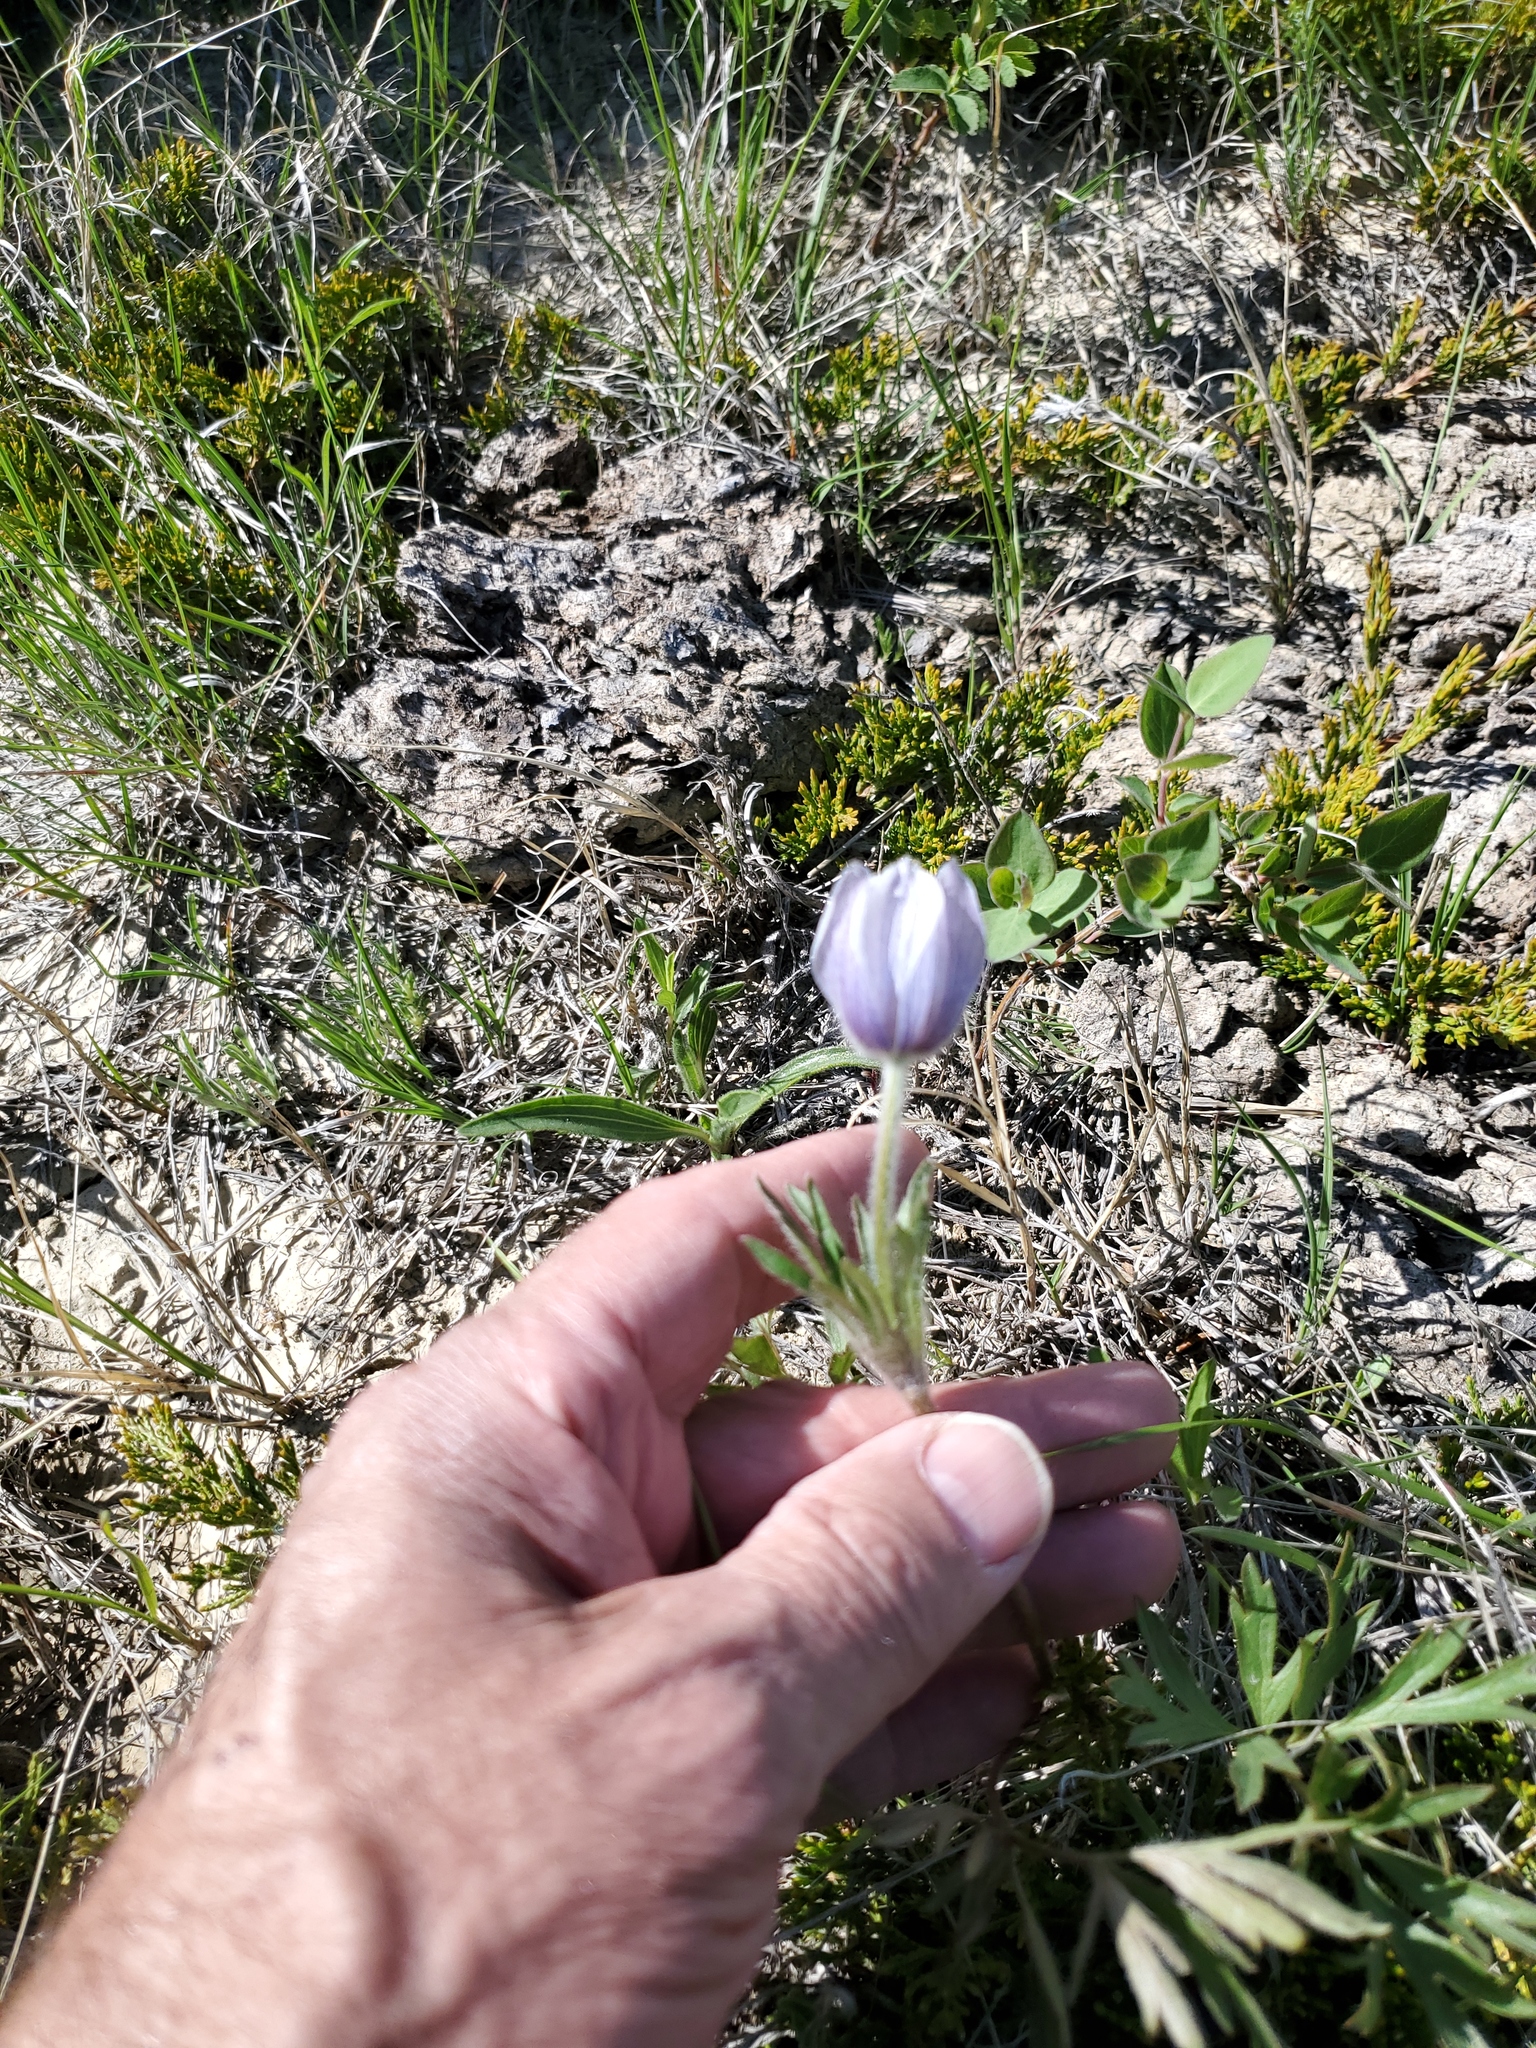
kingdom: Plantae
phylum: Tracheophyta
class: Magnoliopsida
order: Ranunculales
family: Ranunculaceae
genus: Pulsatilla
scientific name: Pulsatilla nuttalliana
